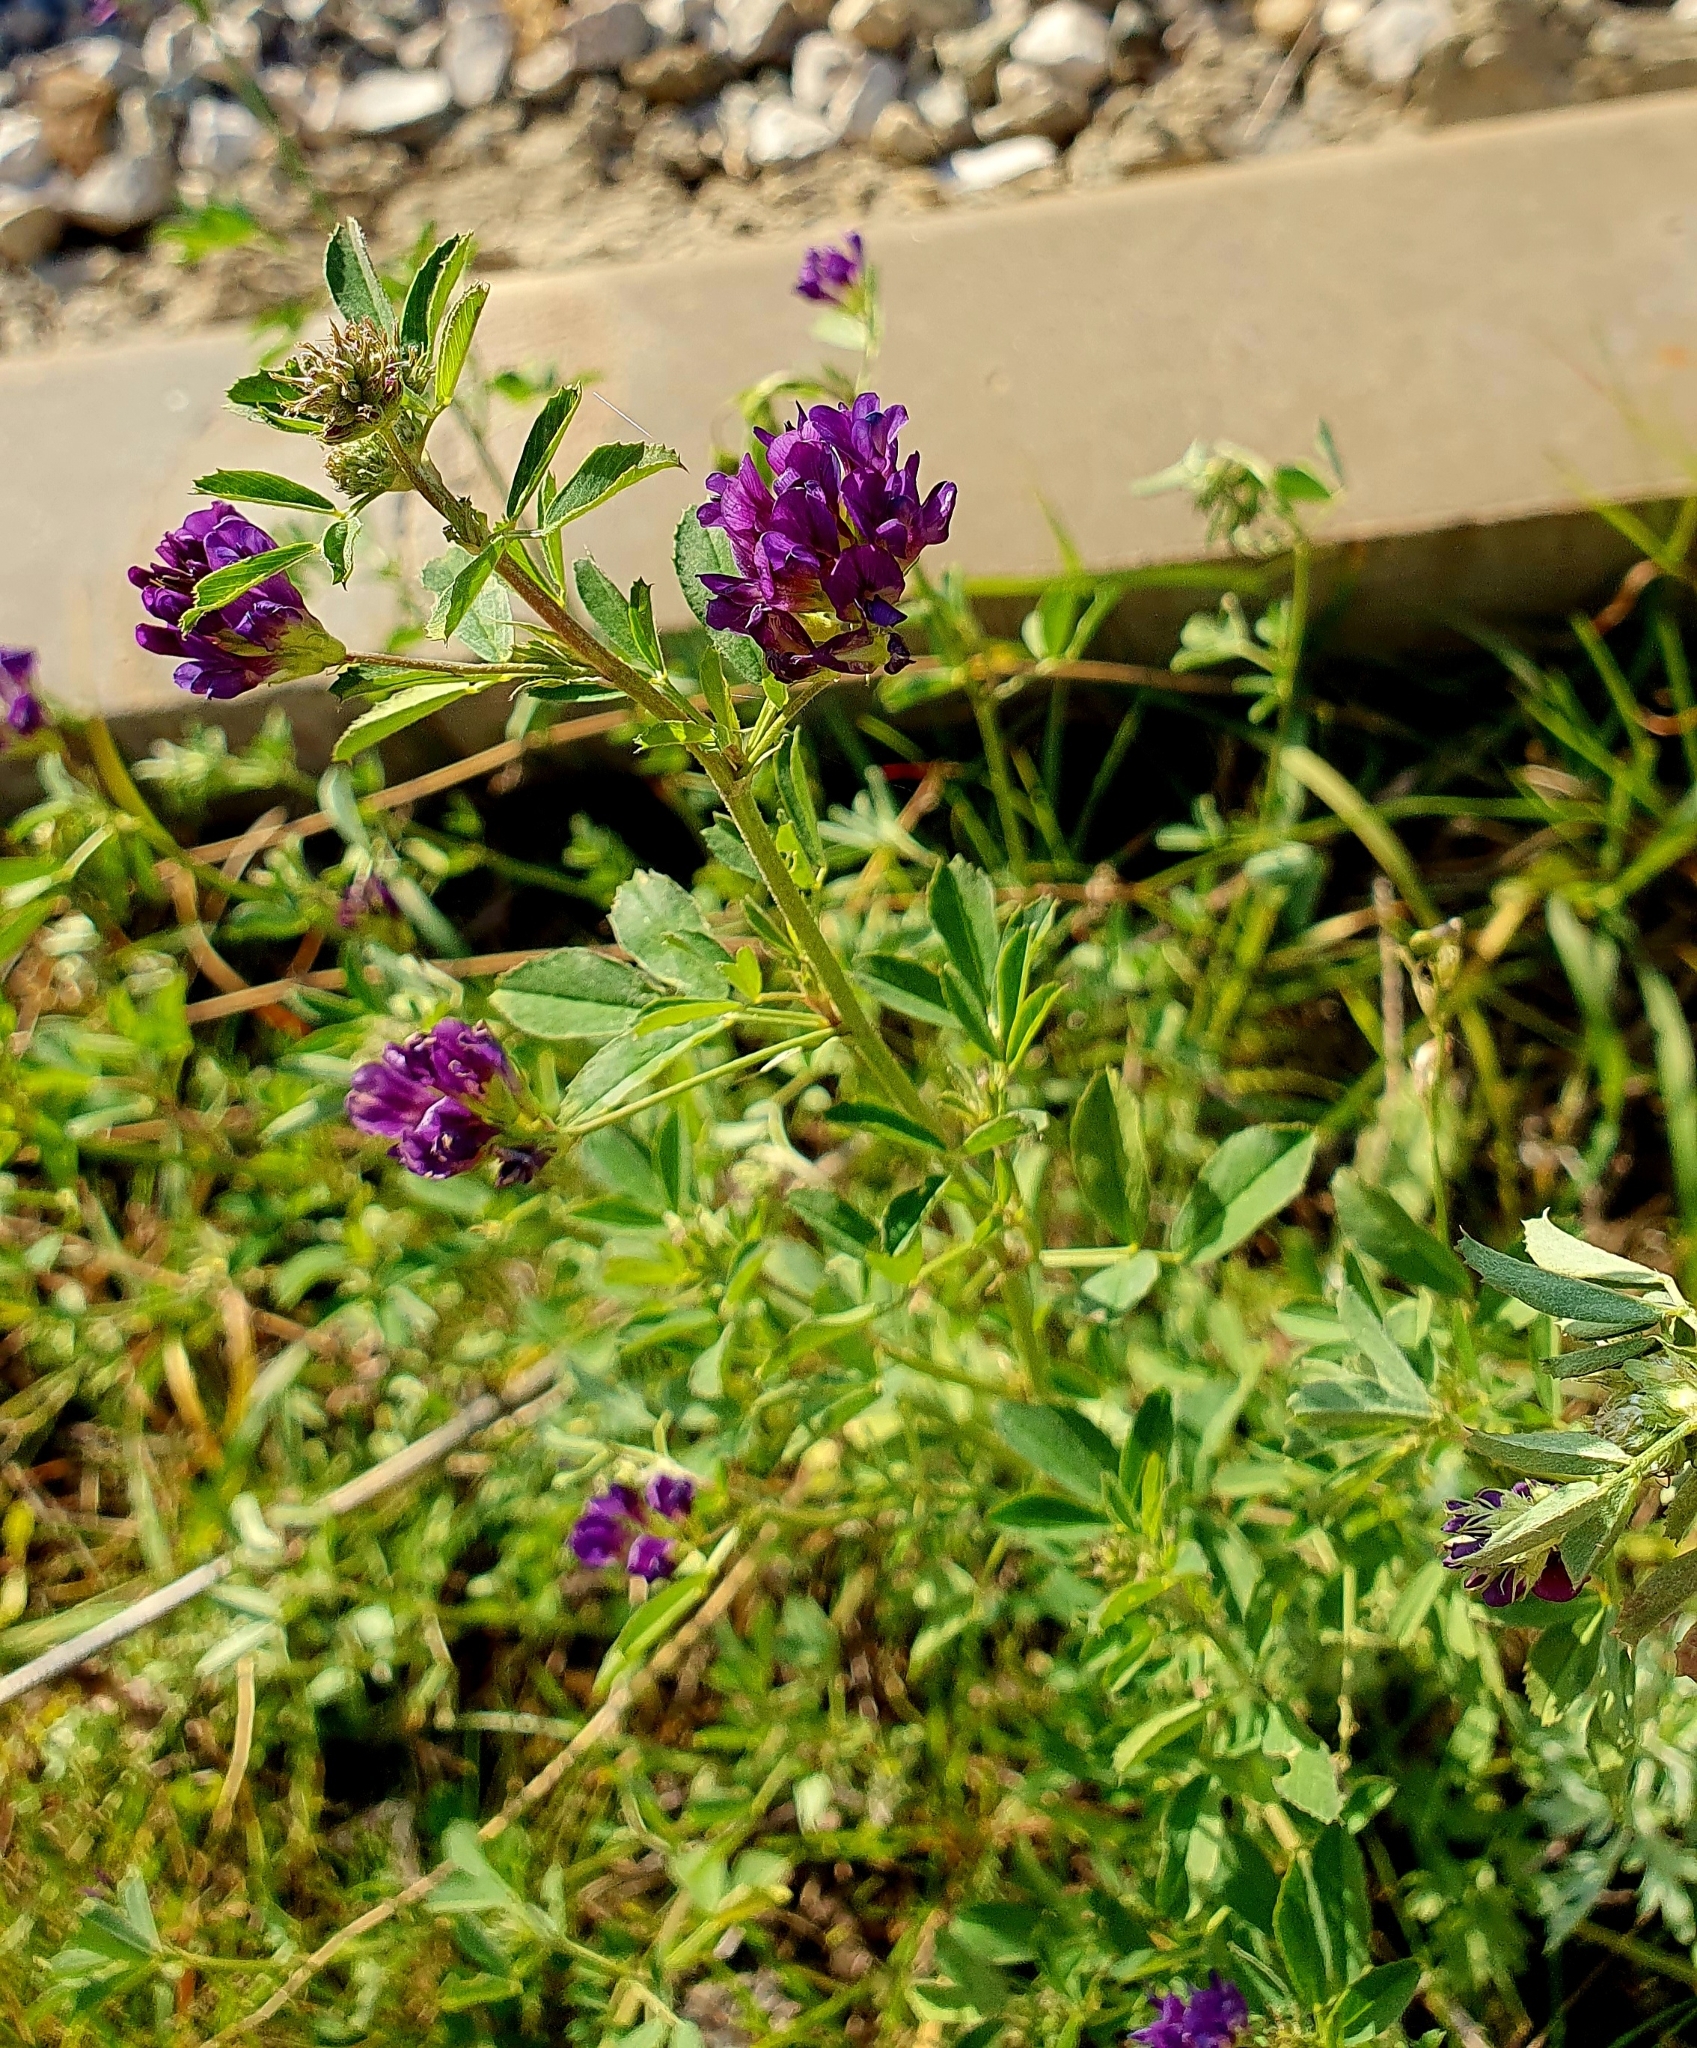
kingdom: Plantae
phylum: Tracheophyta
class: Magnoliopsida
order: Fabales
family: Fabaceae
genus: Medicago
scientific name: Medicago sativa
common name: Alfalfa
